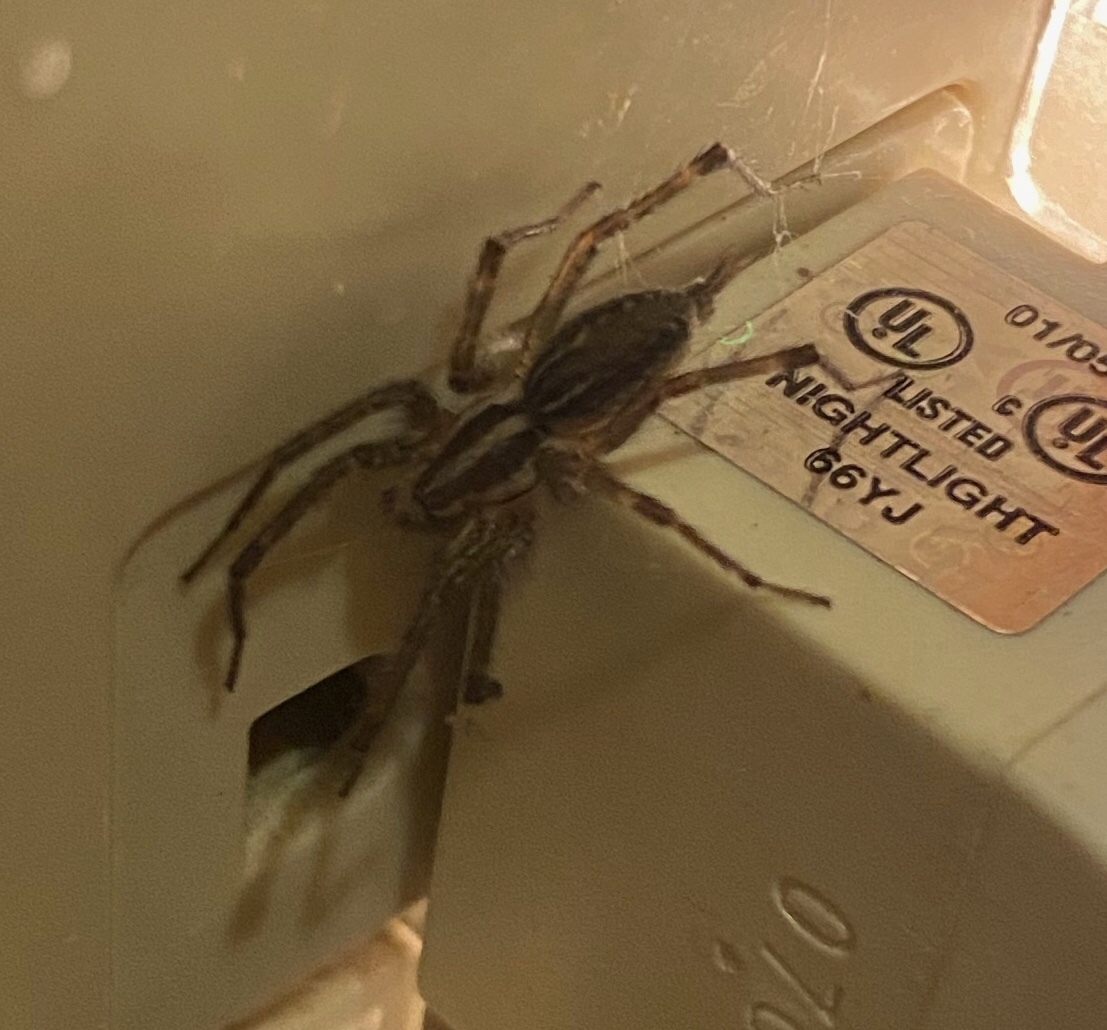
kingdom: Animalia
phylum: Arthropoda
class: Arachnida
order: Araneae
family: Agelenidae
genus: Agelenopsis
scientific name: Agelenopsis
